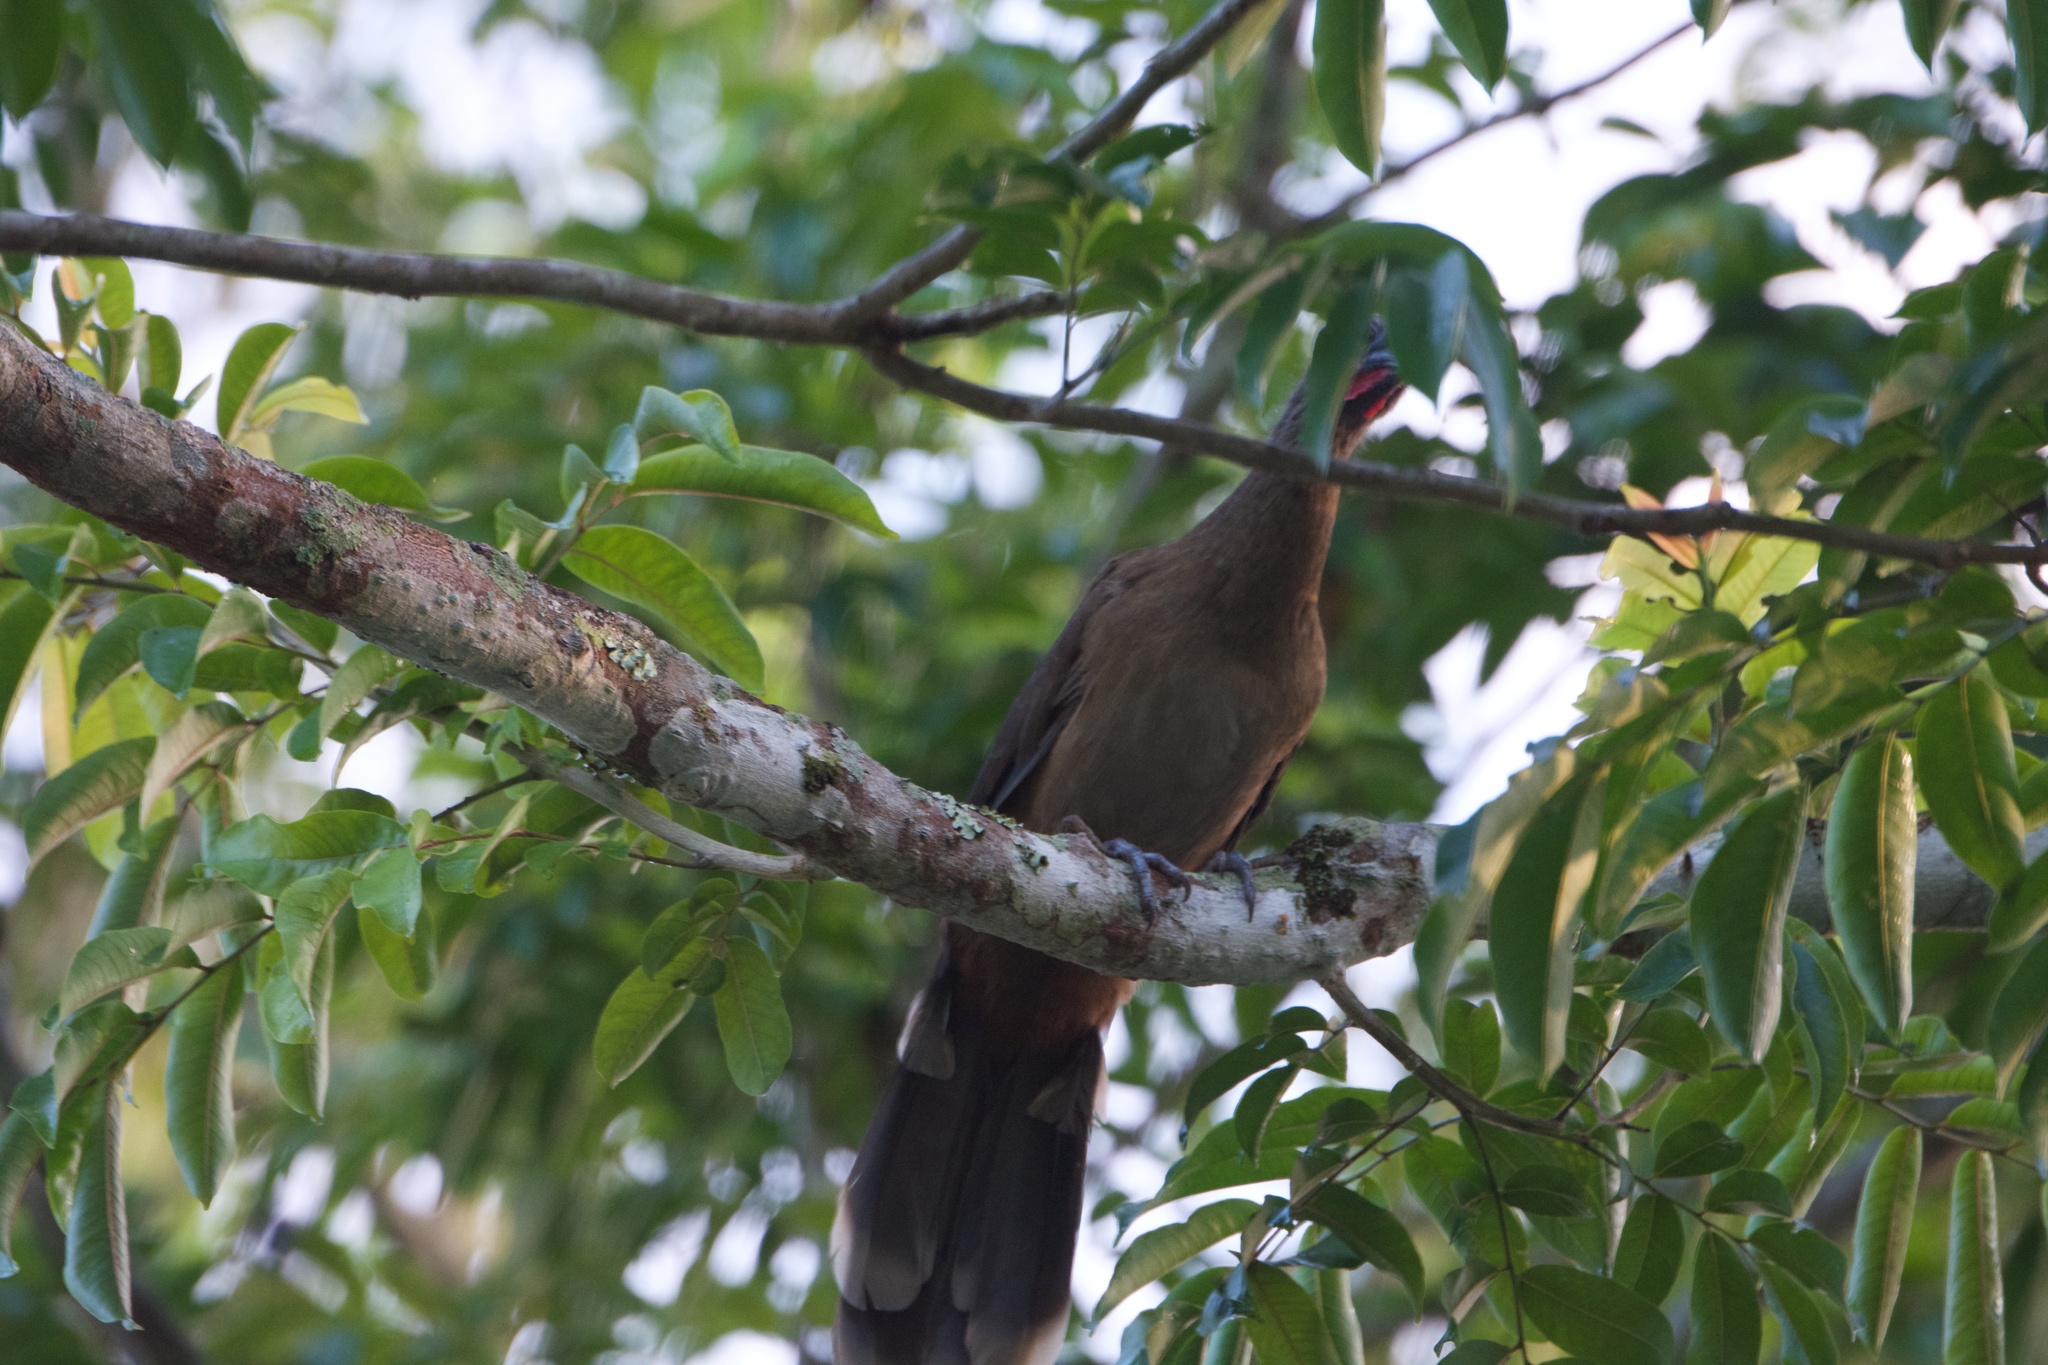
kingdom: Animalia
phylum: Chordata
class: Aves
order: Galliformes
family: Cracidae
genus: Ortalis
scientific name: Ortalis vetula
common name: Plain chachalaca
